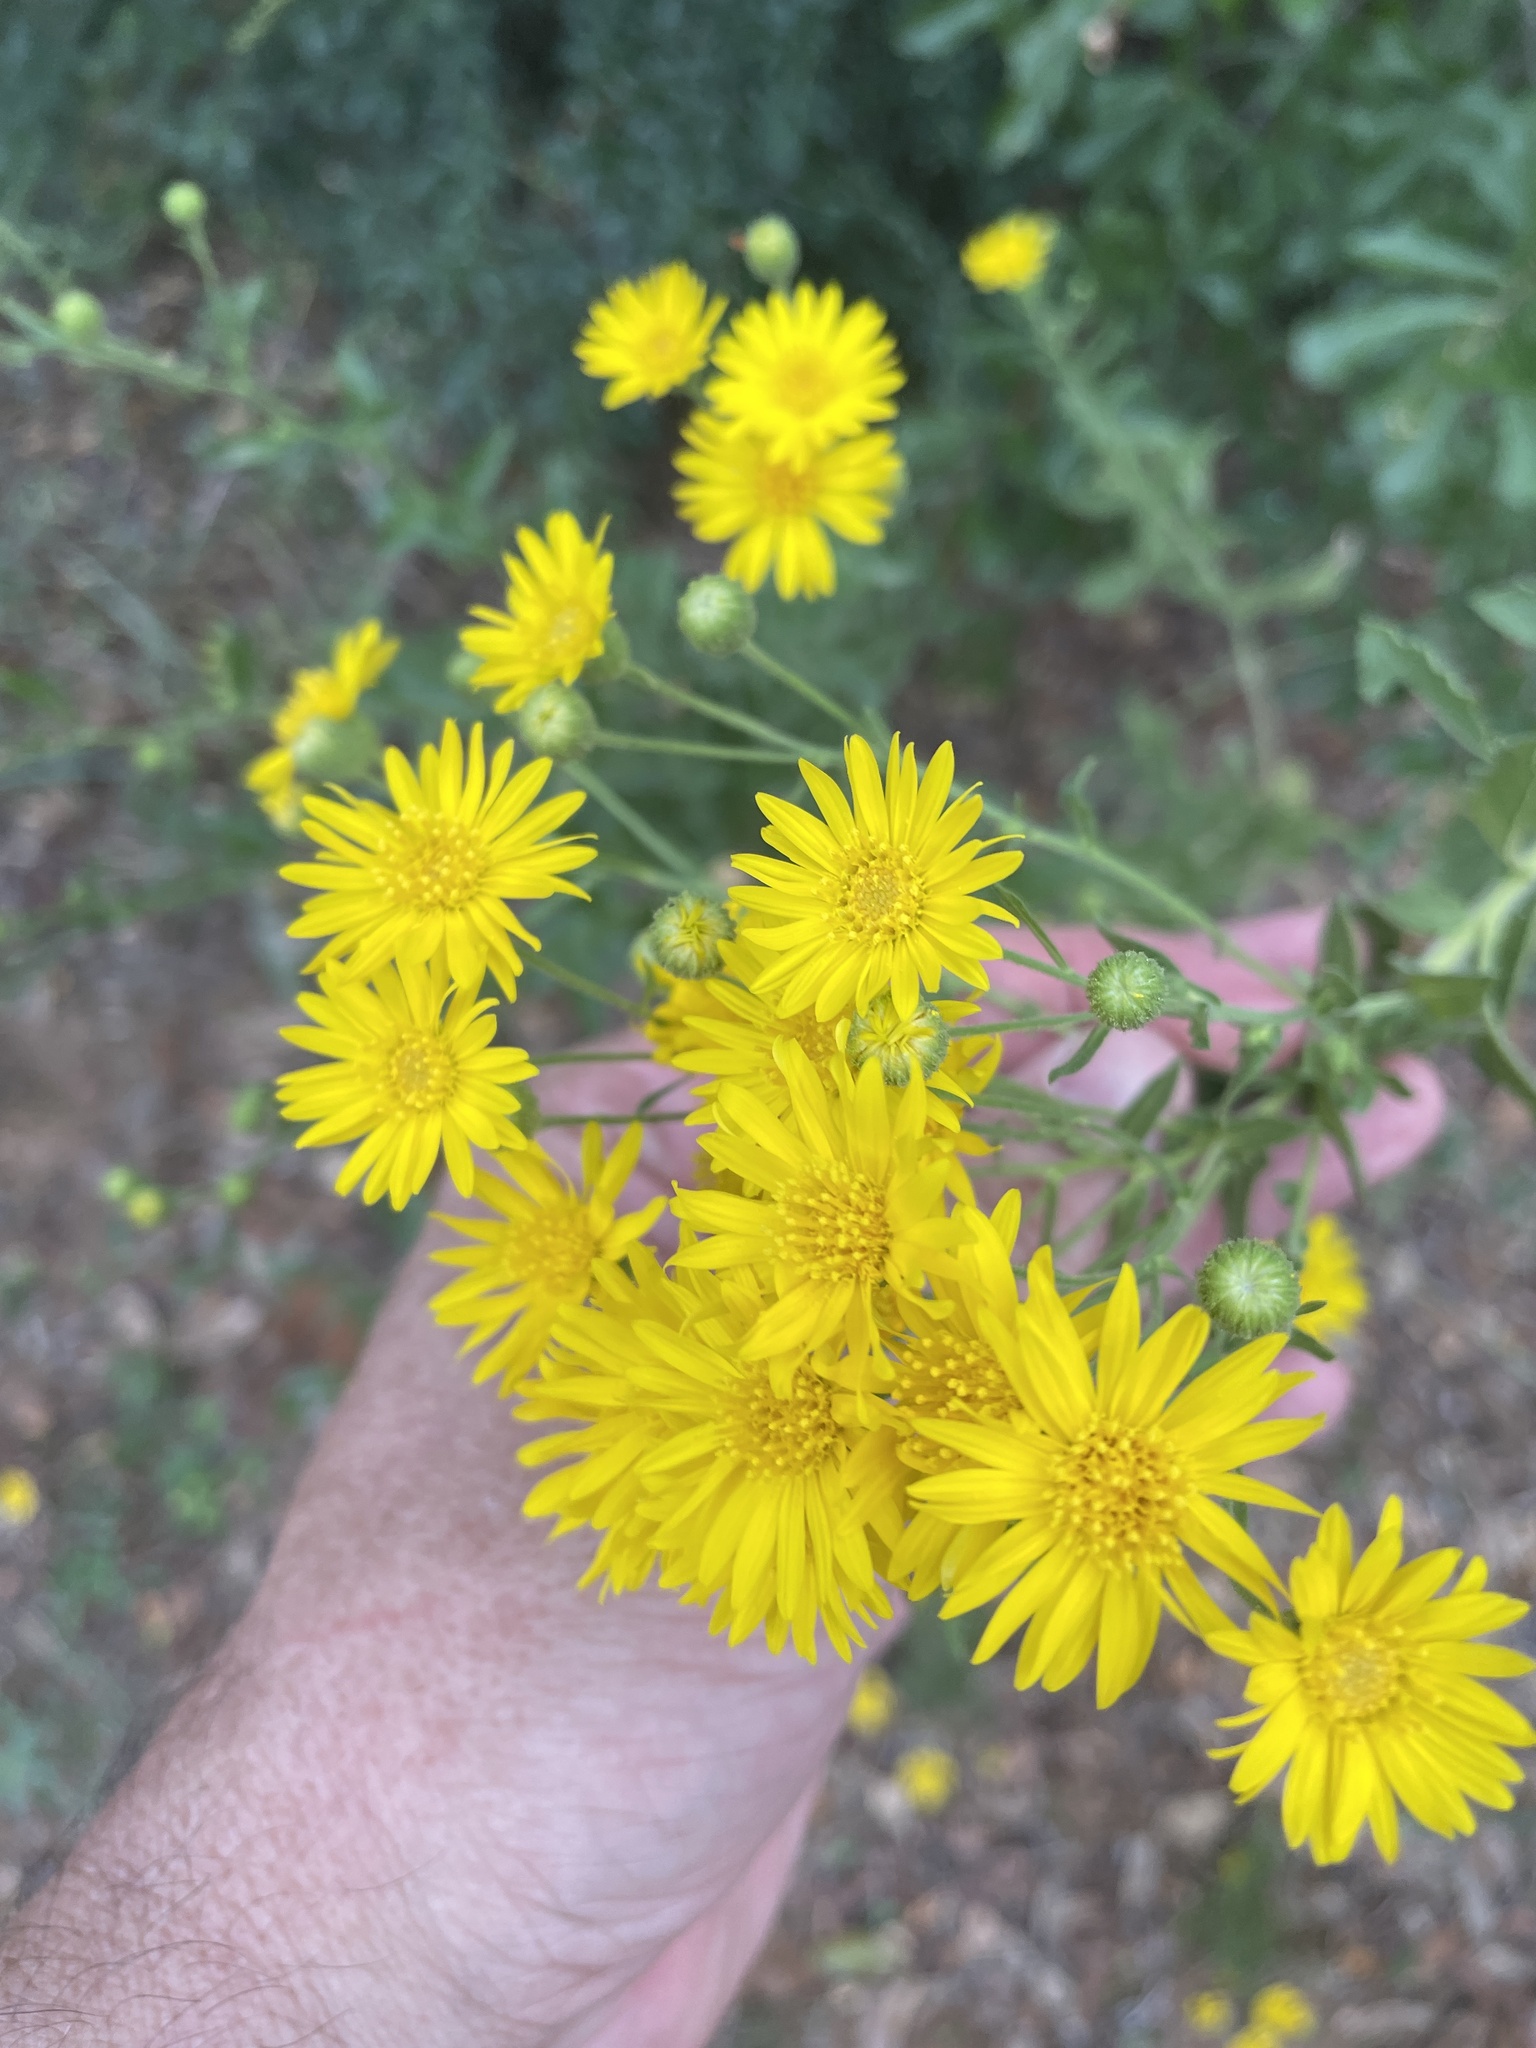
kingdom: Plantae
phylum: Tracheophyta
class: Magnoliopsida
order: Asterales
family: Asteraceae
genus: Heterotheca
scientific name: Heterotheca subaxillaris
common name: Camphorweed
